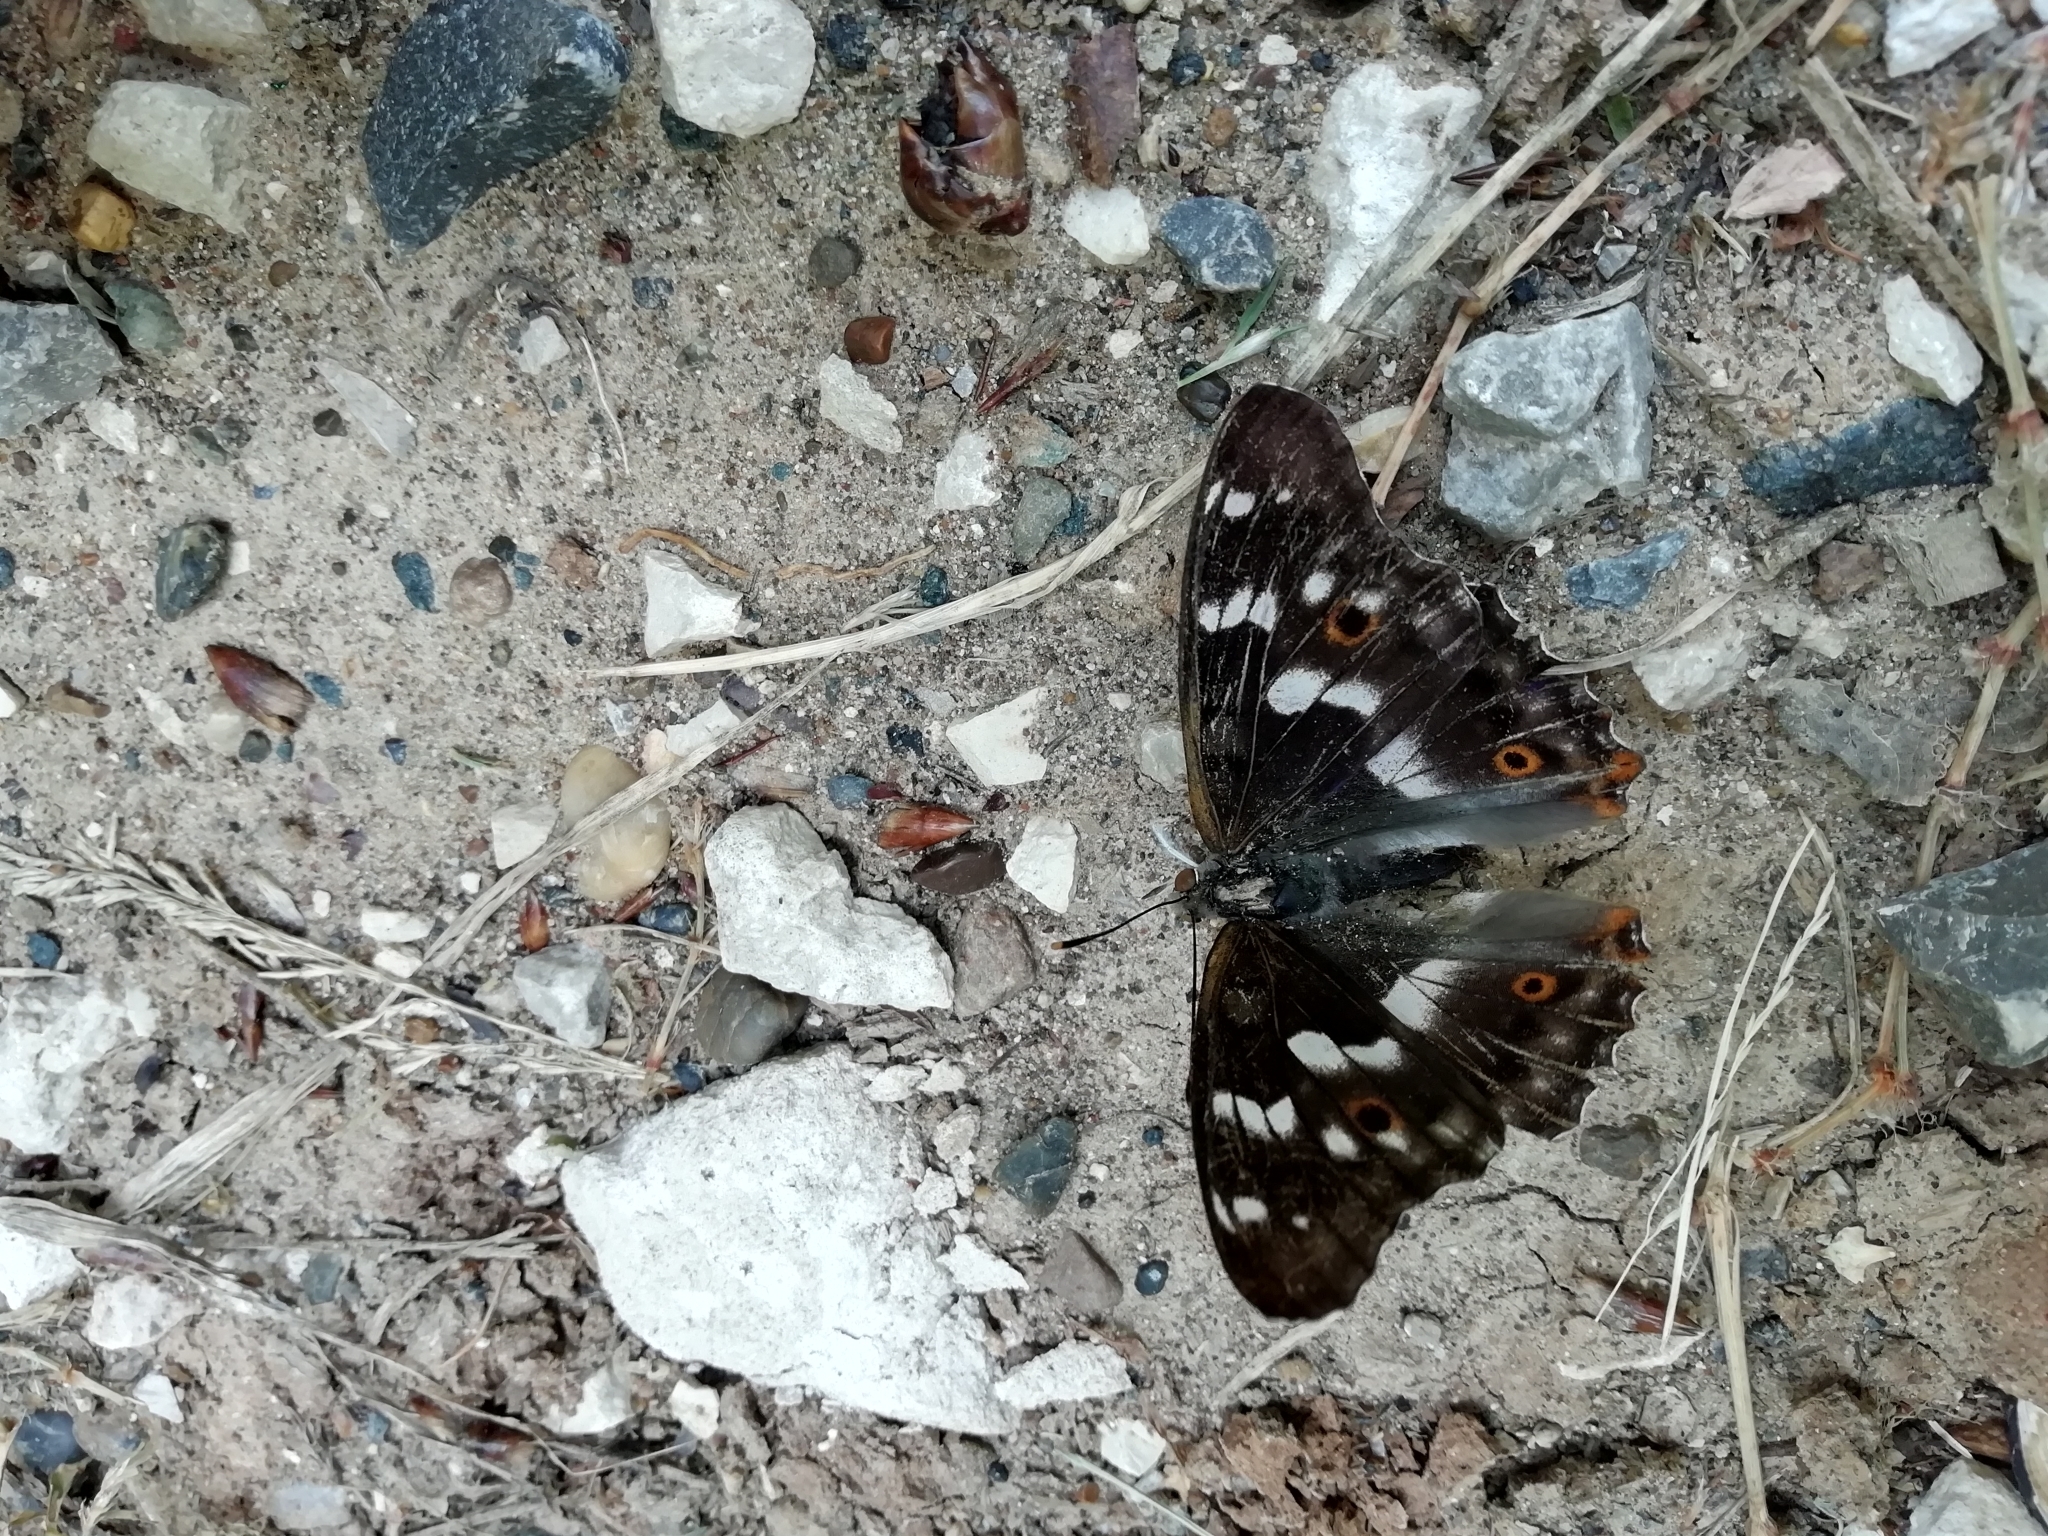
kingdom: Animalia
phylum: Arthropoda
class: Insecta
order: Lepidoptera
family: Nymphalidae
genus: Apatura
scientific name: Apatura ilia
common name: Lesser purple emperor
